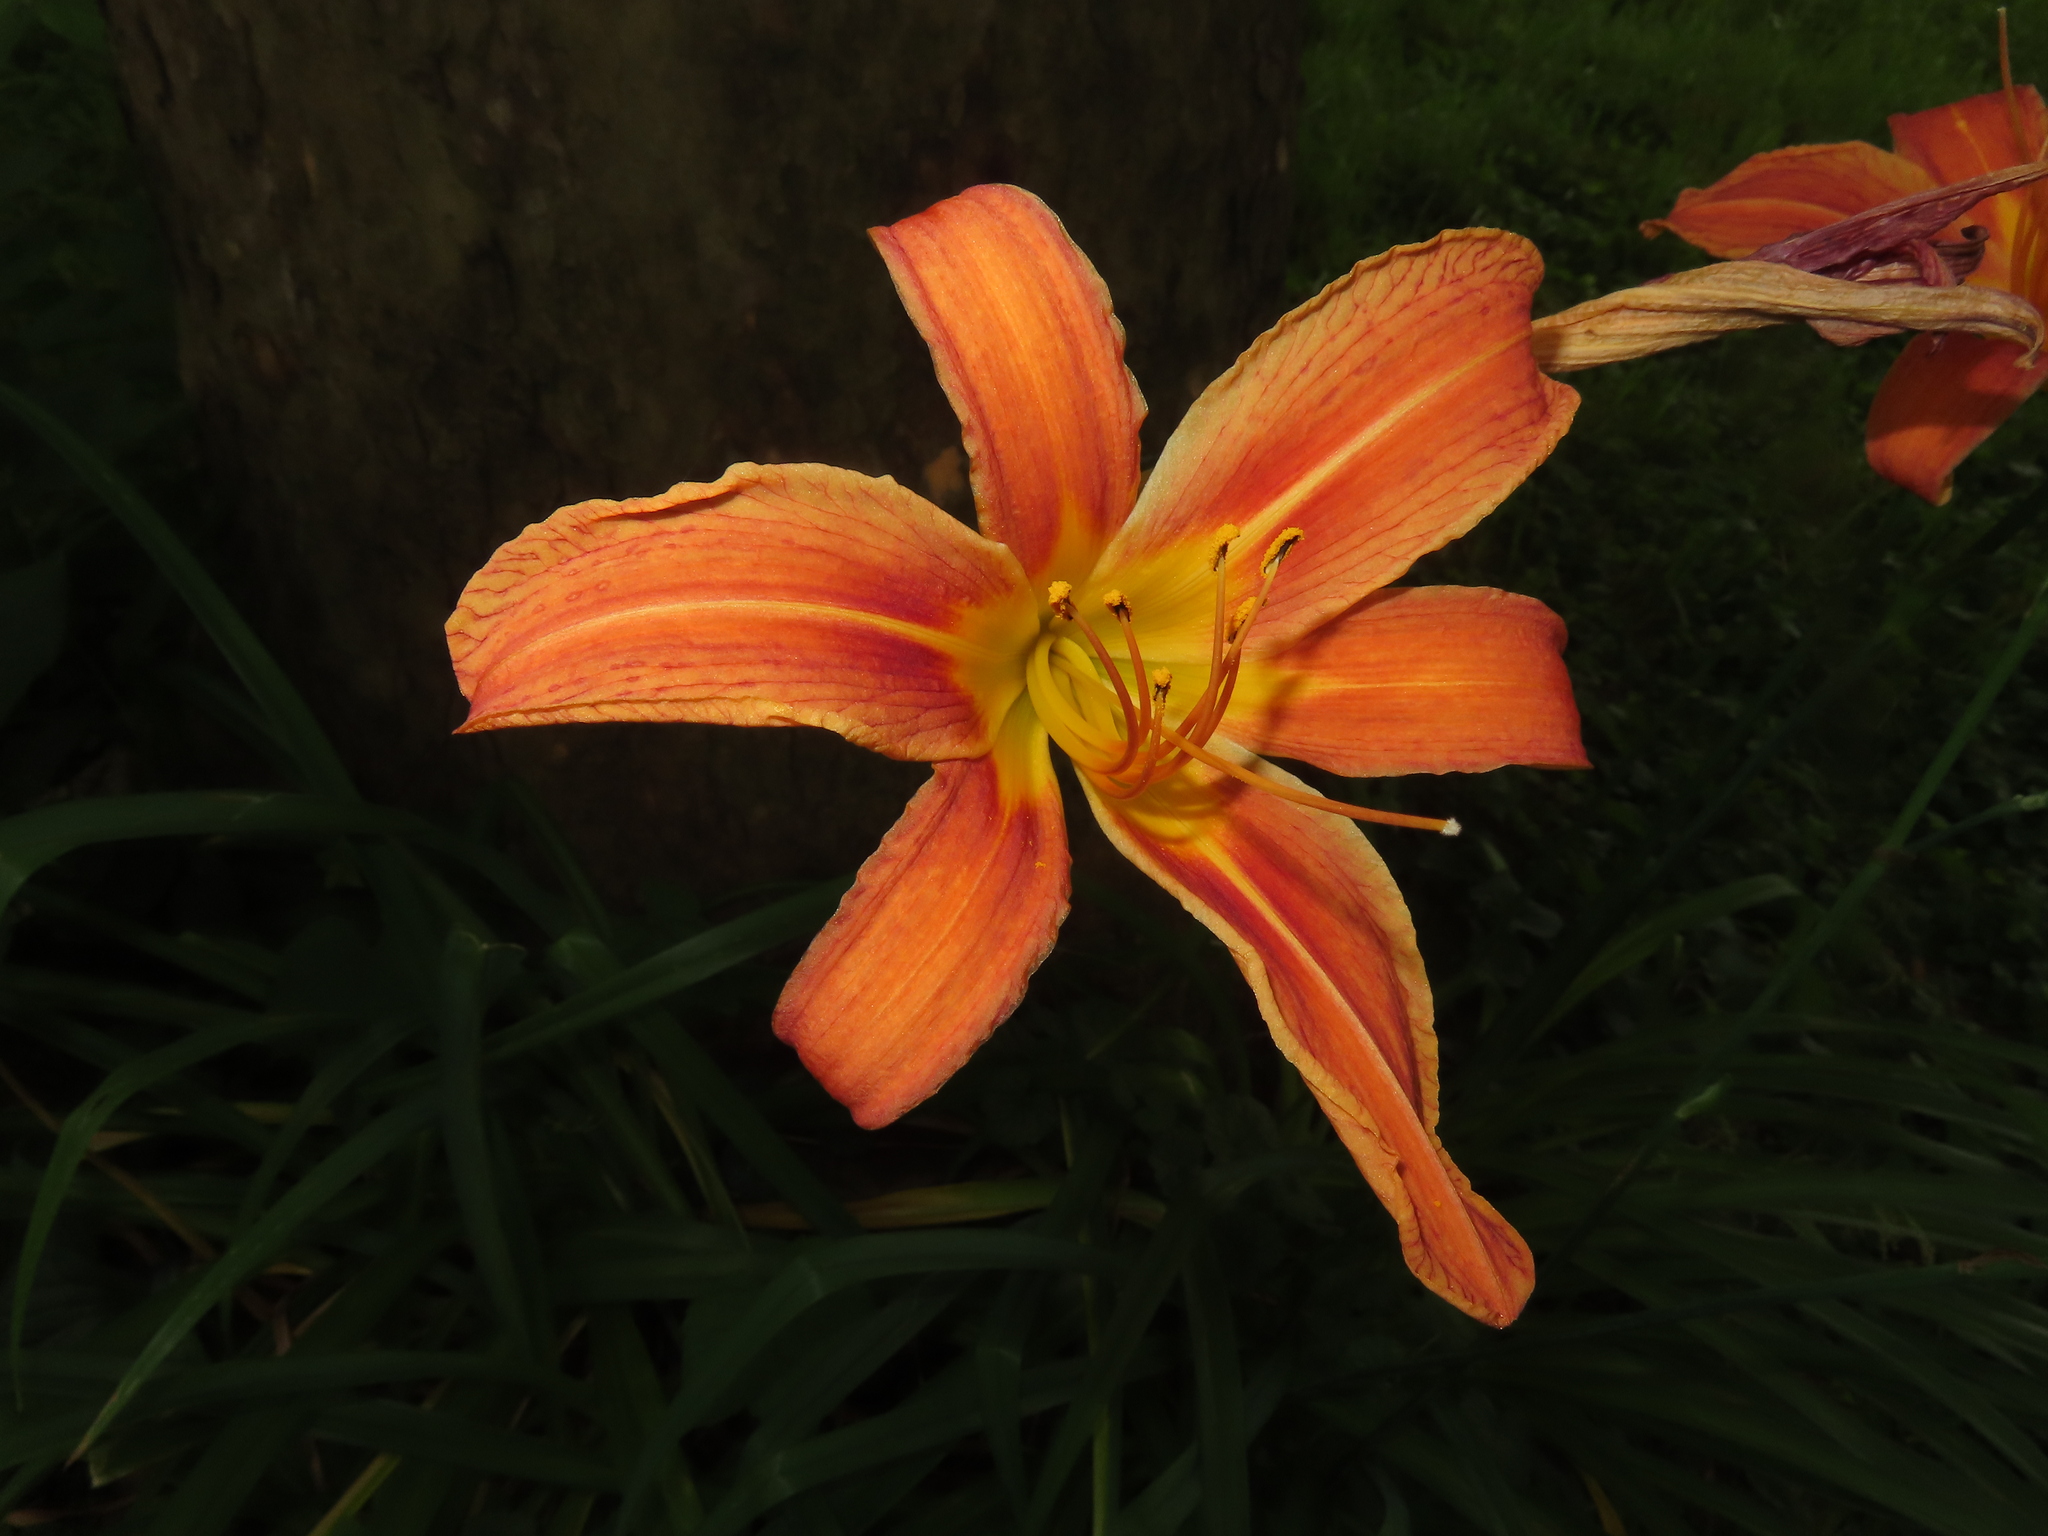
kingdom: Plantae
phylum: Tracheophyta
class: Liliopsida
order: Asparagales
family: Asphodelaceae
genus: Hemerocallis
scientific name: Hemerocallis fulva
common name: Orange day-lily
